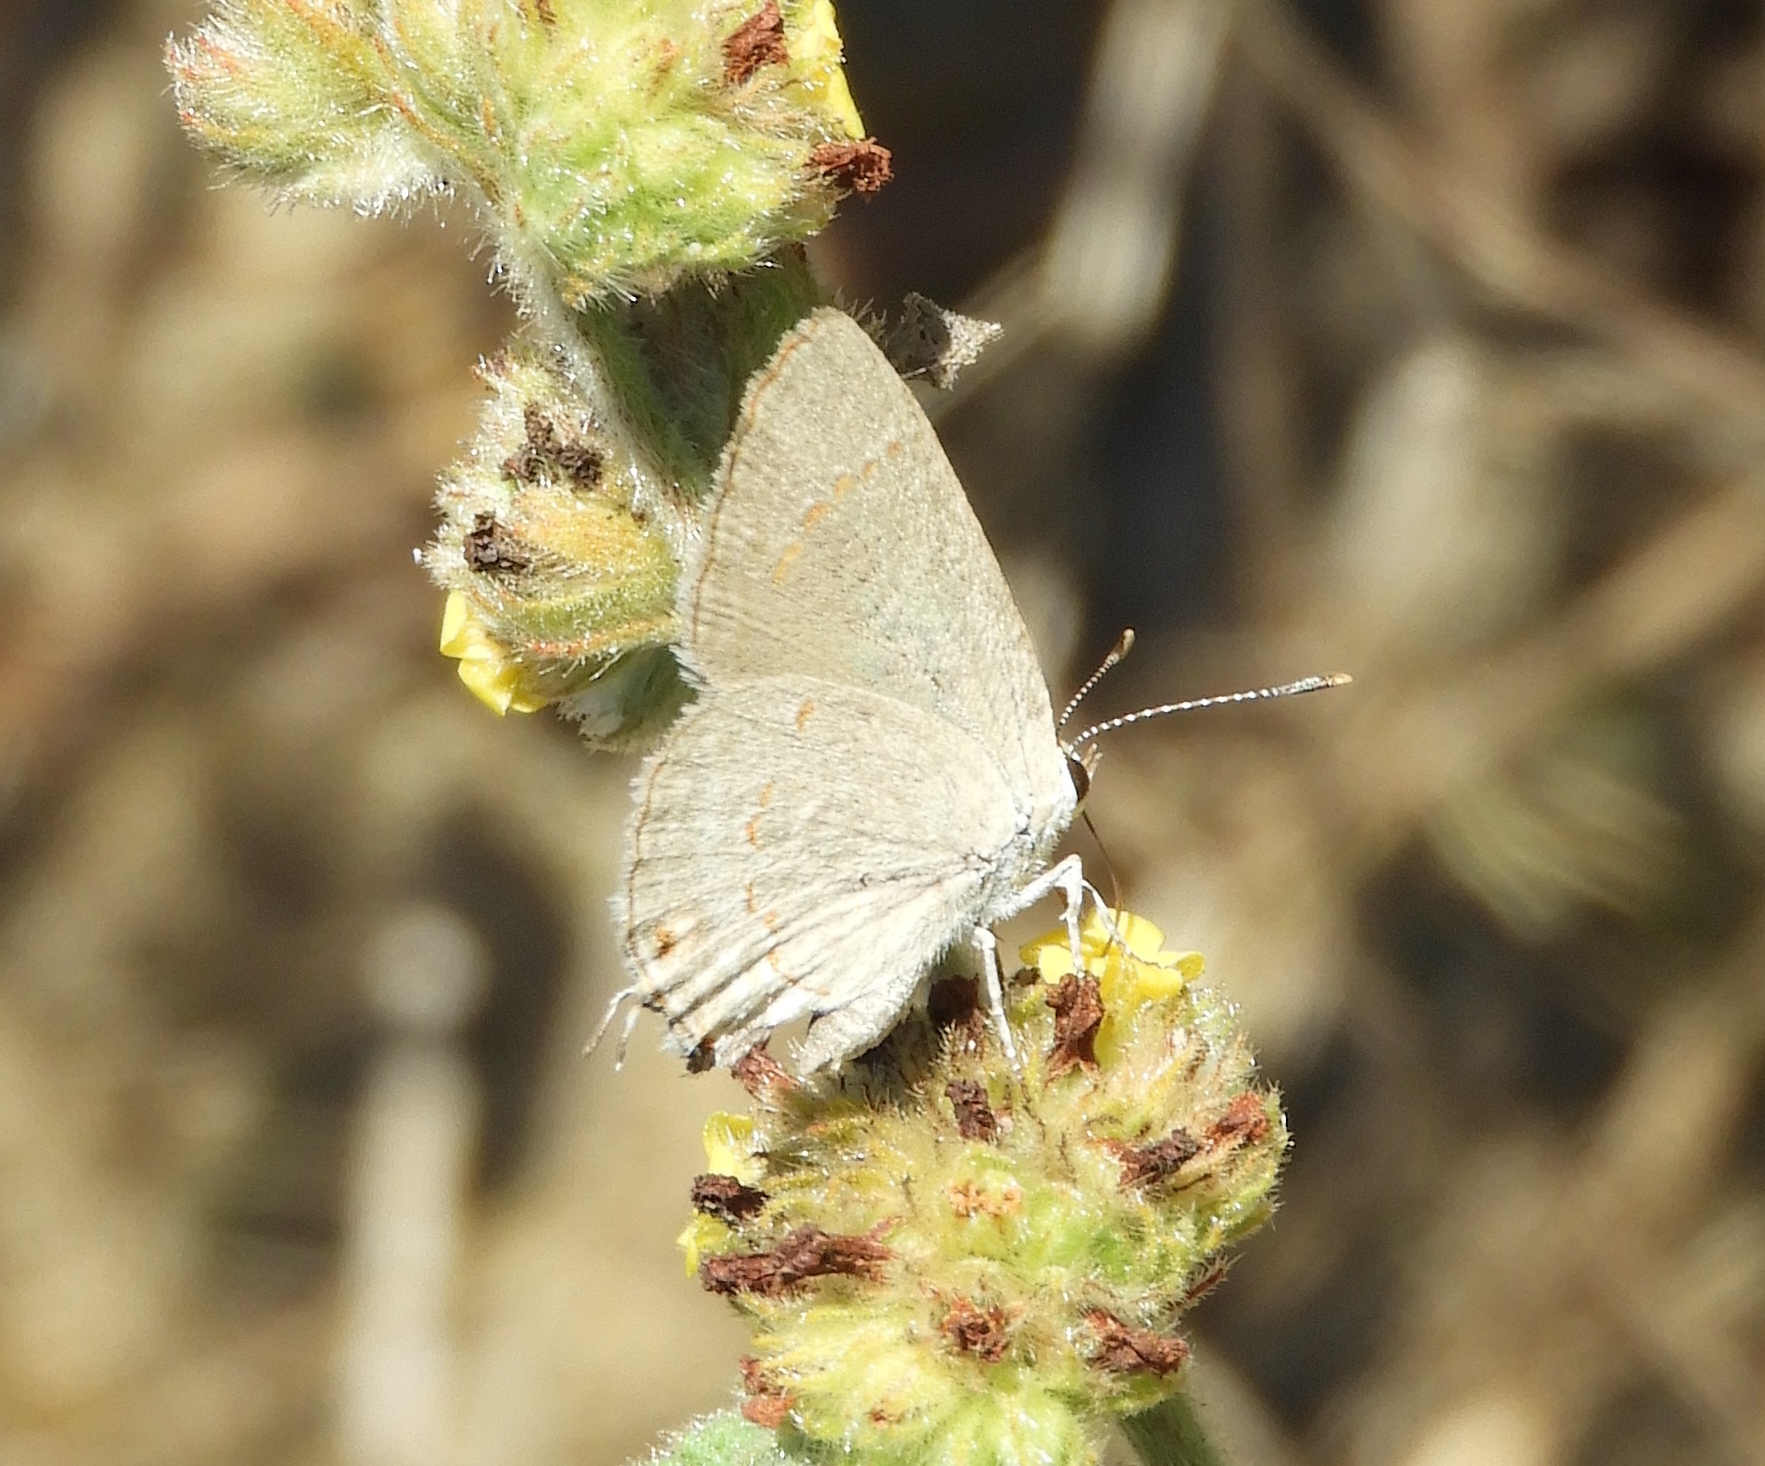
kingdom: Animalia
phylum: Arthropoda
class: Insecta
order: Lepidoptera
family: Lycaenidae
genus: Thecla
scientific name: Thecla rufofusca
